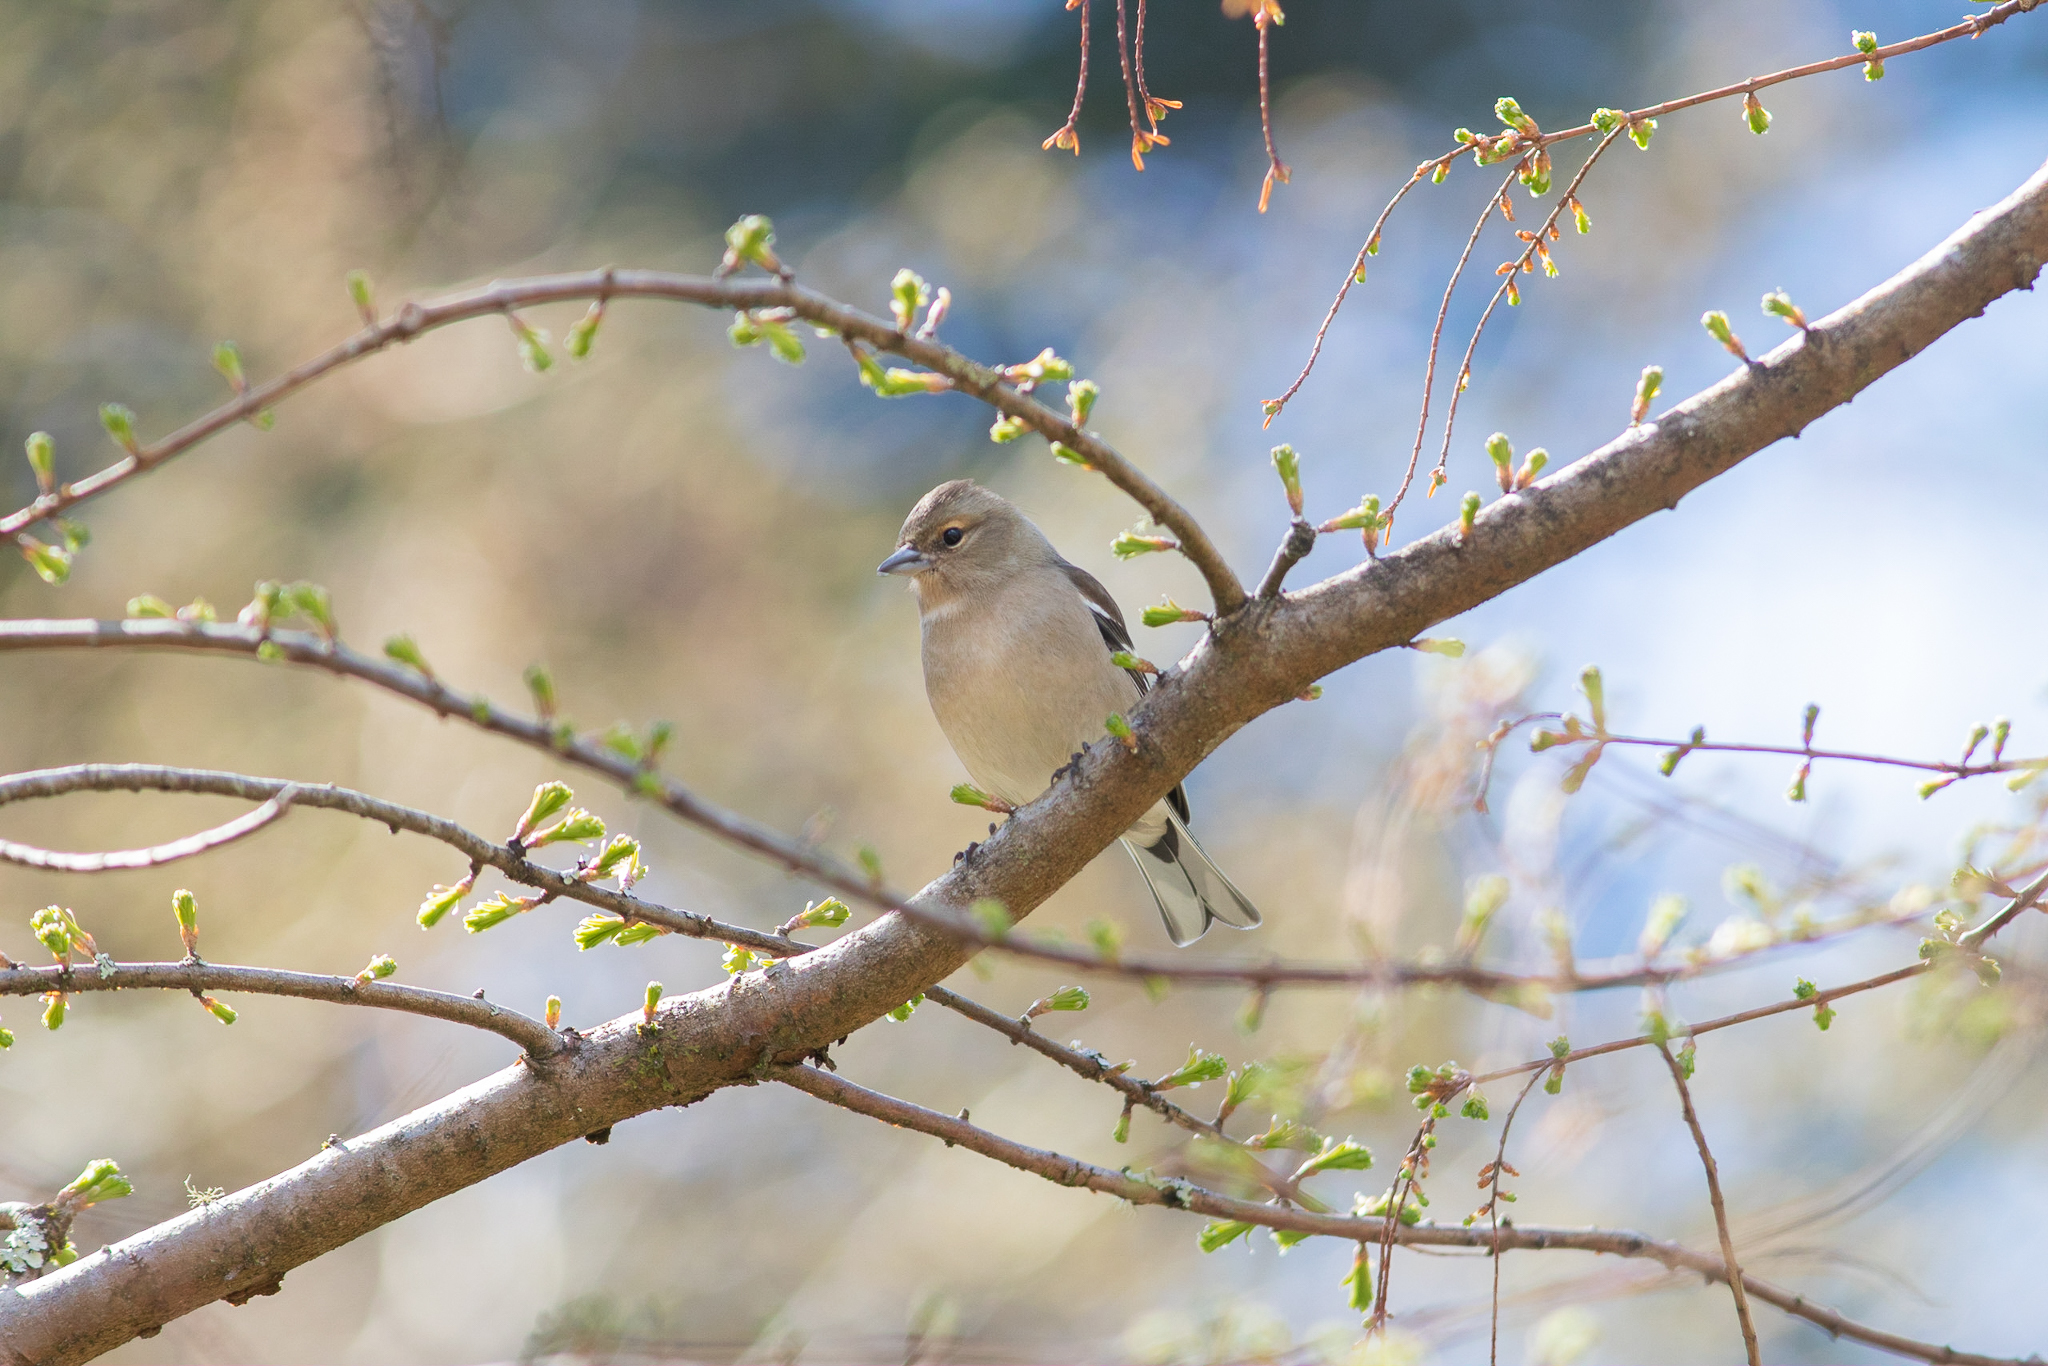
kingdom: Animalia
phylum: Chordata
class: Aves
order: Passeriformes
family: Fringillidae
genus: Fringilla
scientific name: Fringilla coelebs
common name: Common chaffinch
